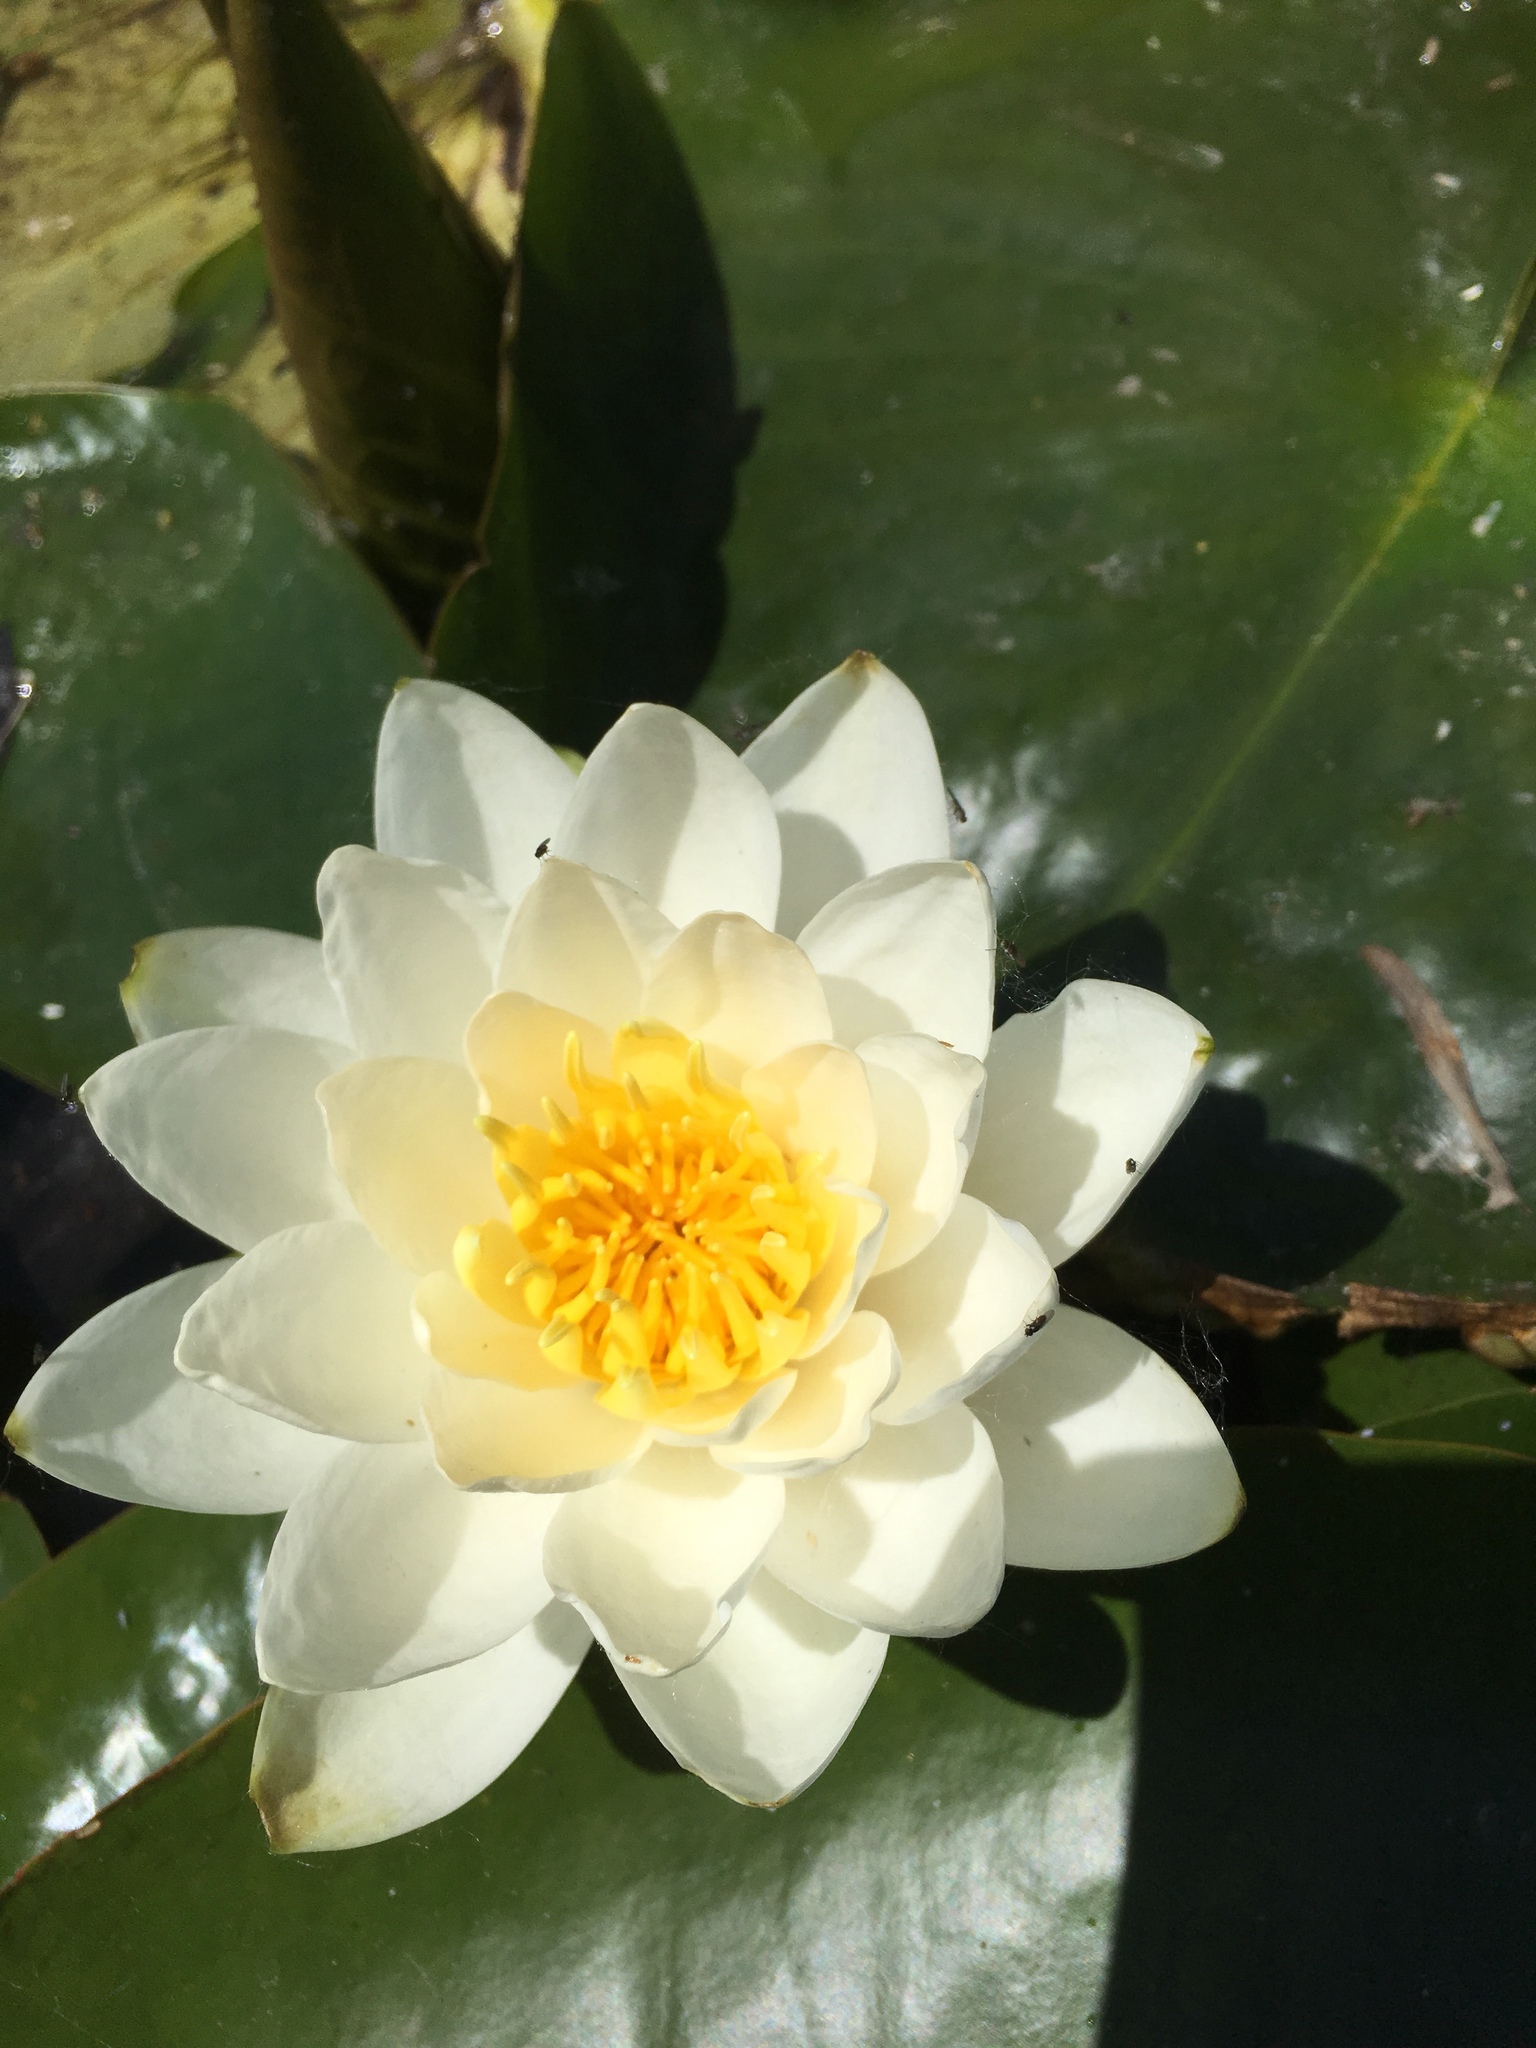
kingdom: Plantae
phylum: Tracheophyta
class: Magnoliopsida
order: Nymphaeales
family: Nymphaeaceae
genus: Nymphaea
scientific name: Nymphaea odorata
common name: Fragrant water-lily
